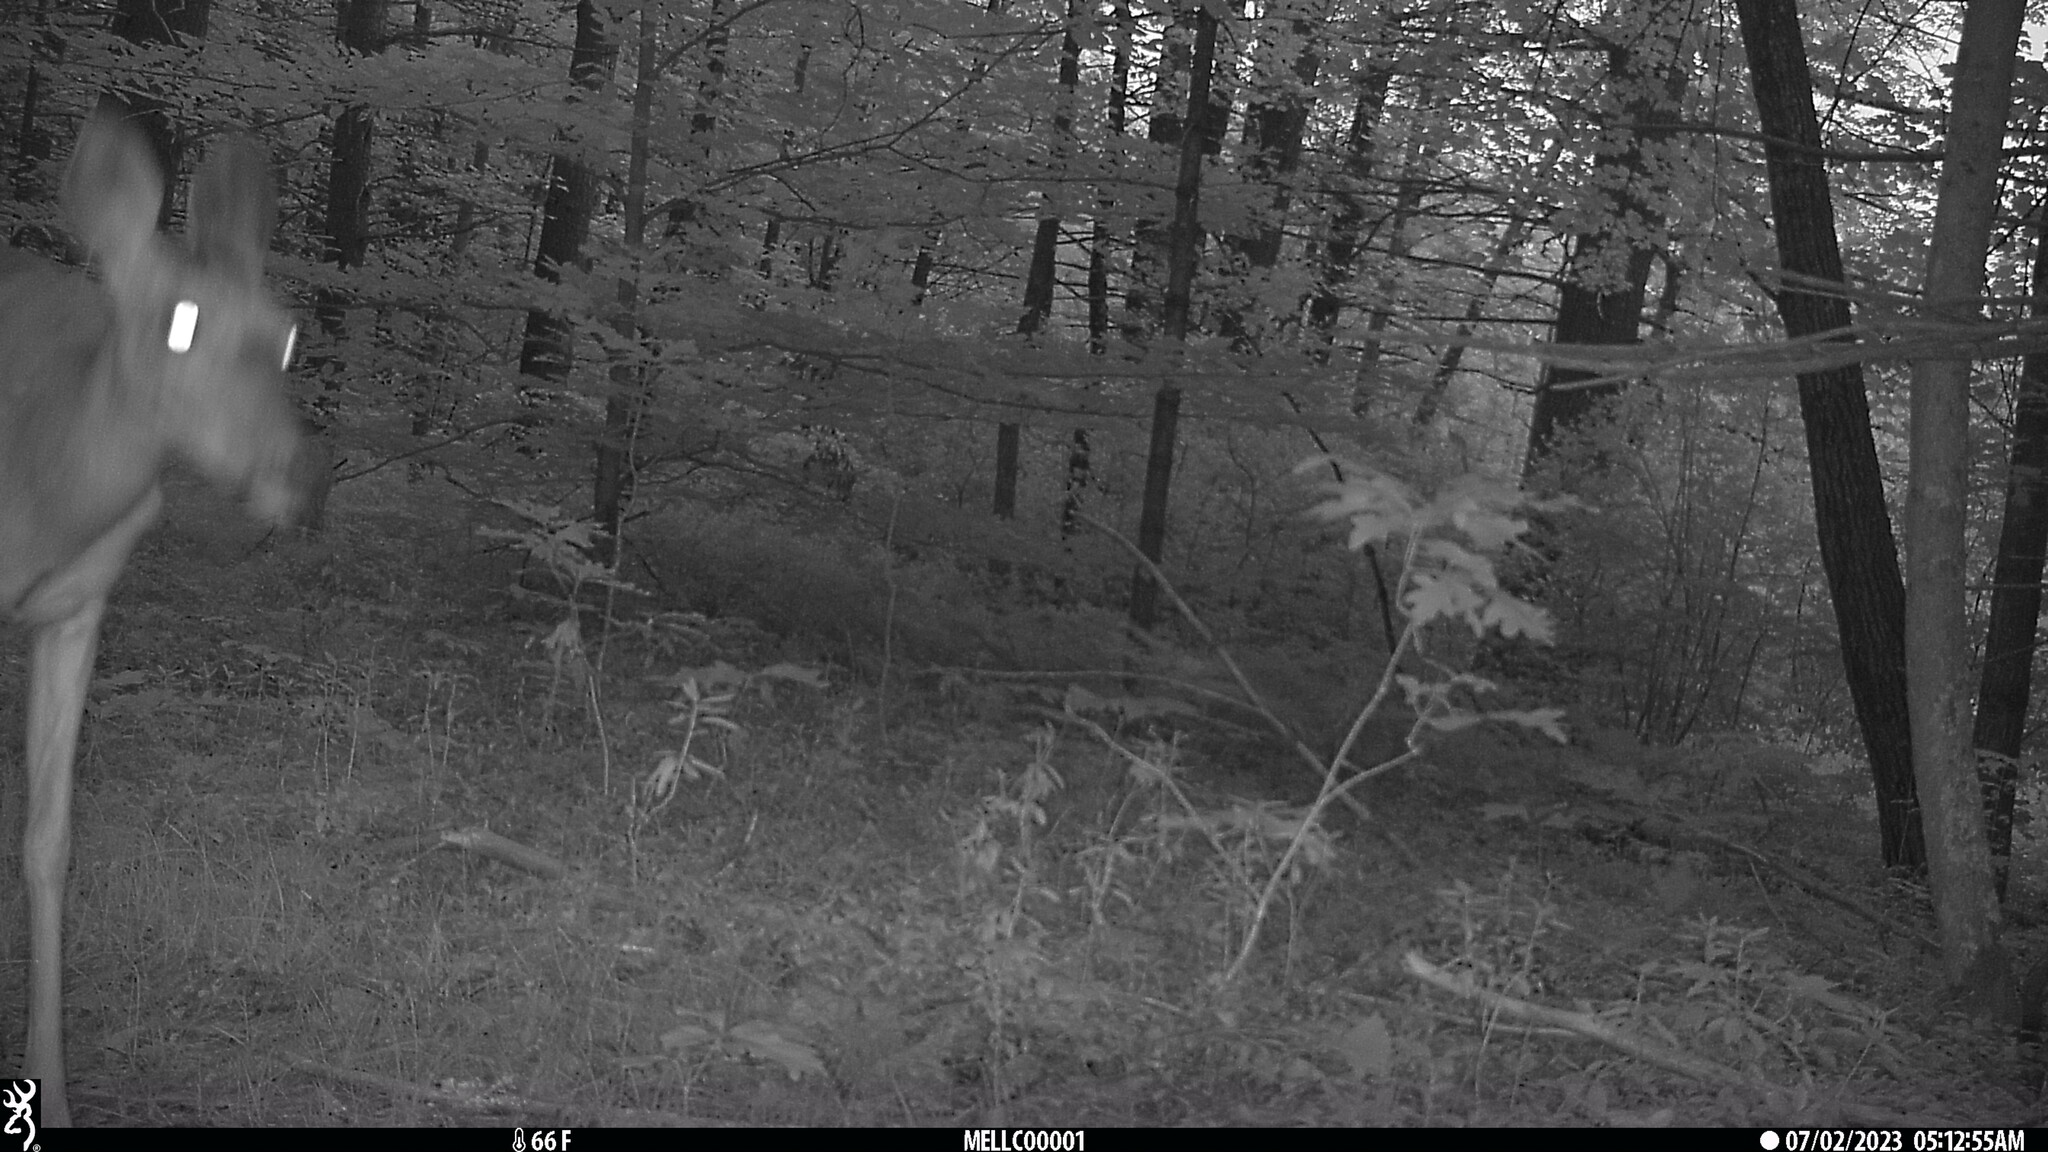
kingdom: Animalia
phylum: Chordata
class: Mammalia
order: Artiodactyla
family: Cervidae
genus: Odocoileus
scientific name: Odocoileus virginianus
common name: White-tailed deer
